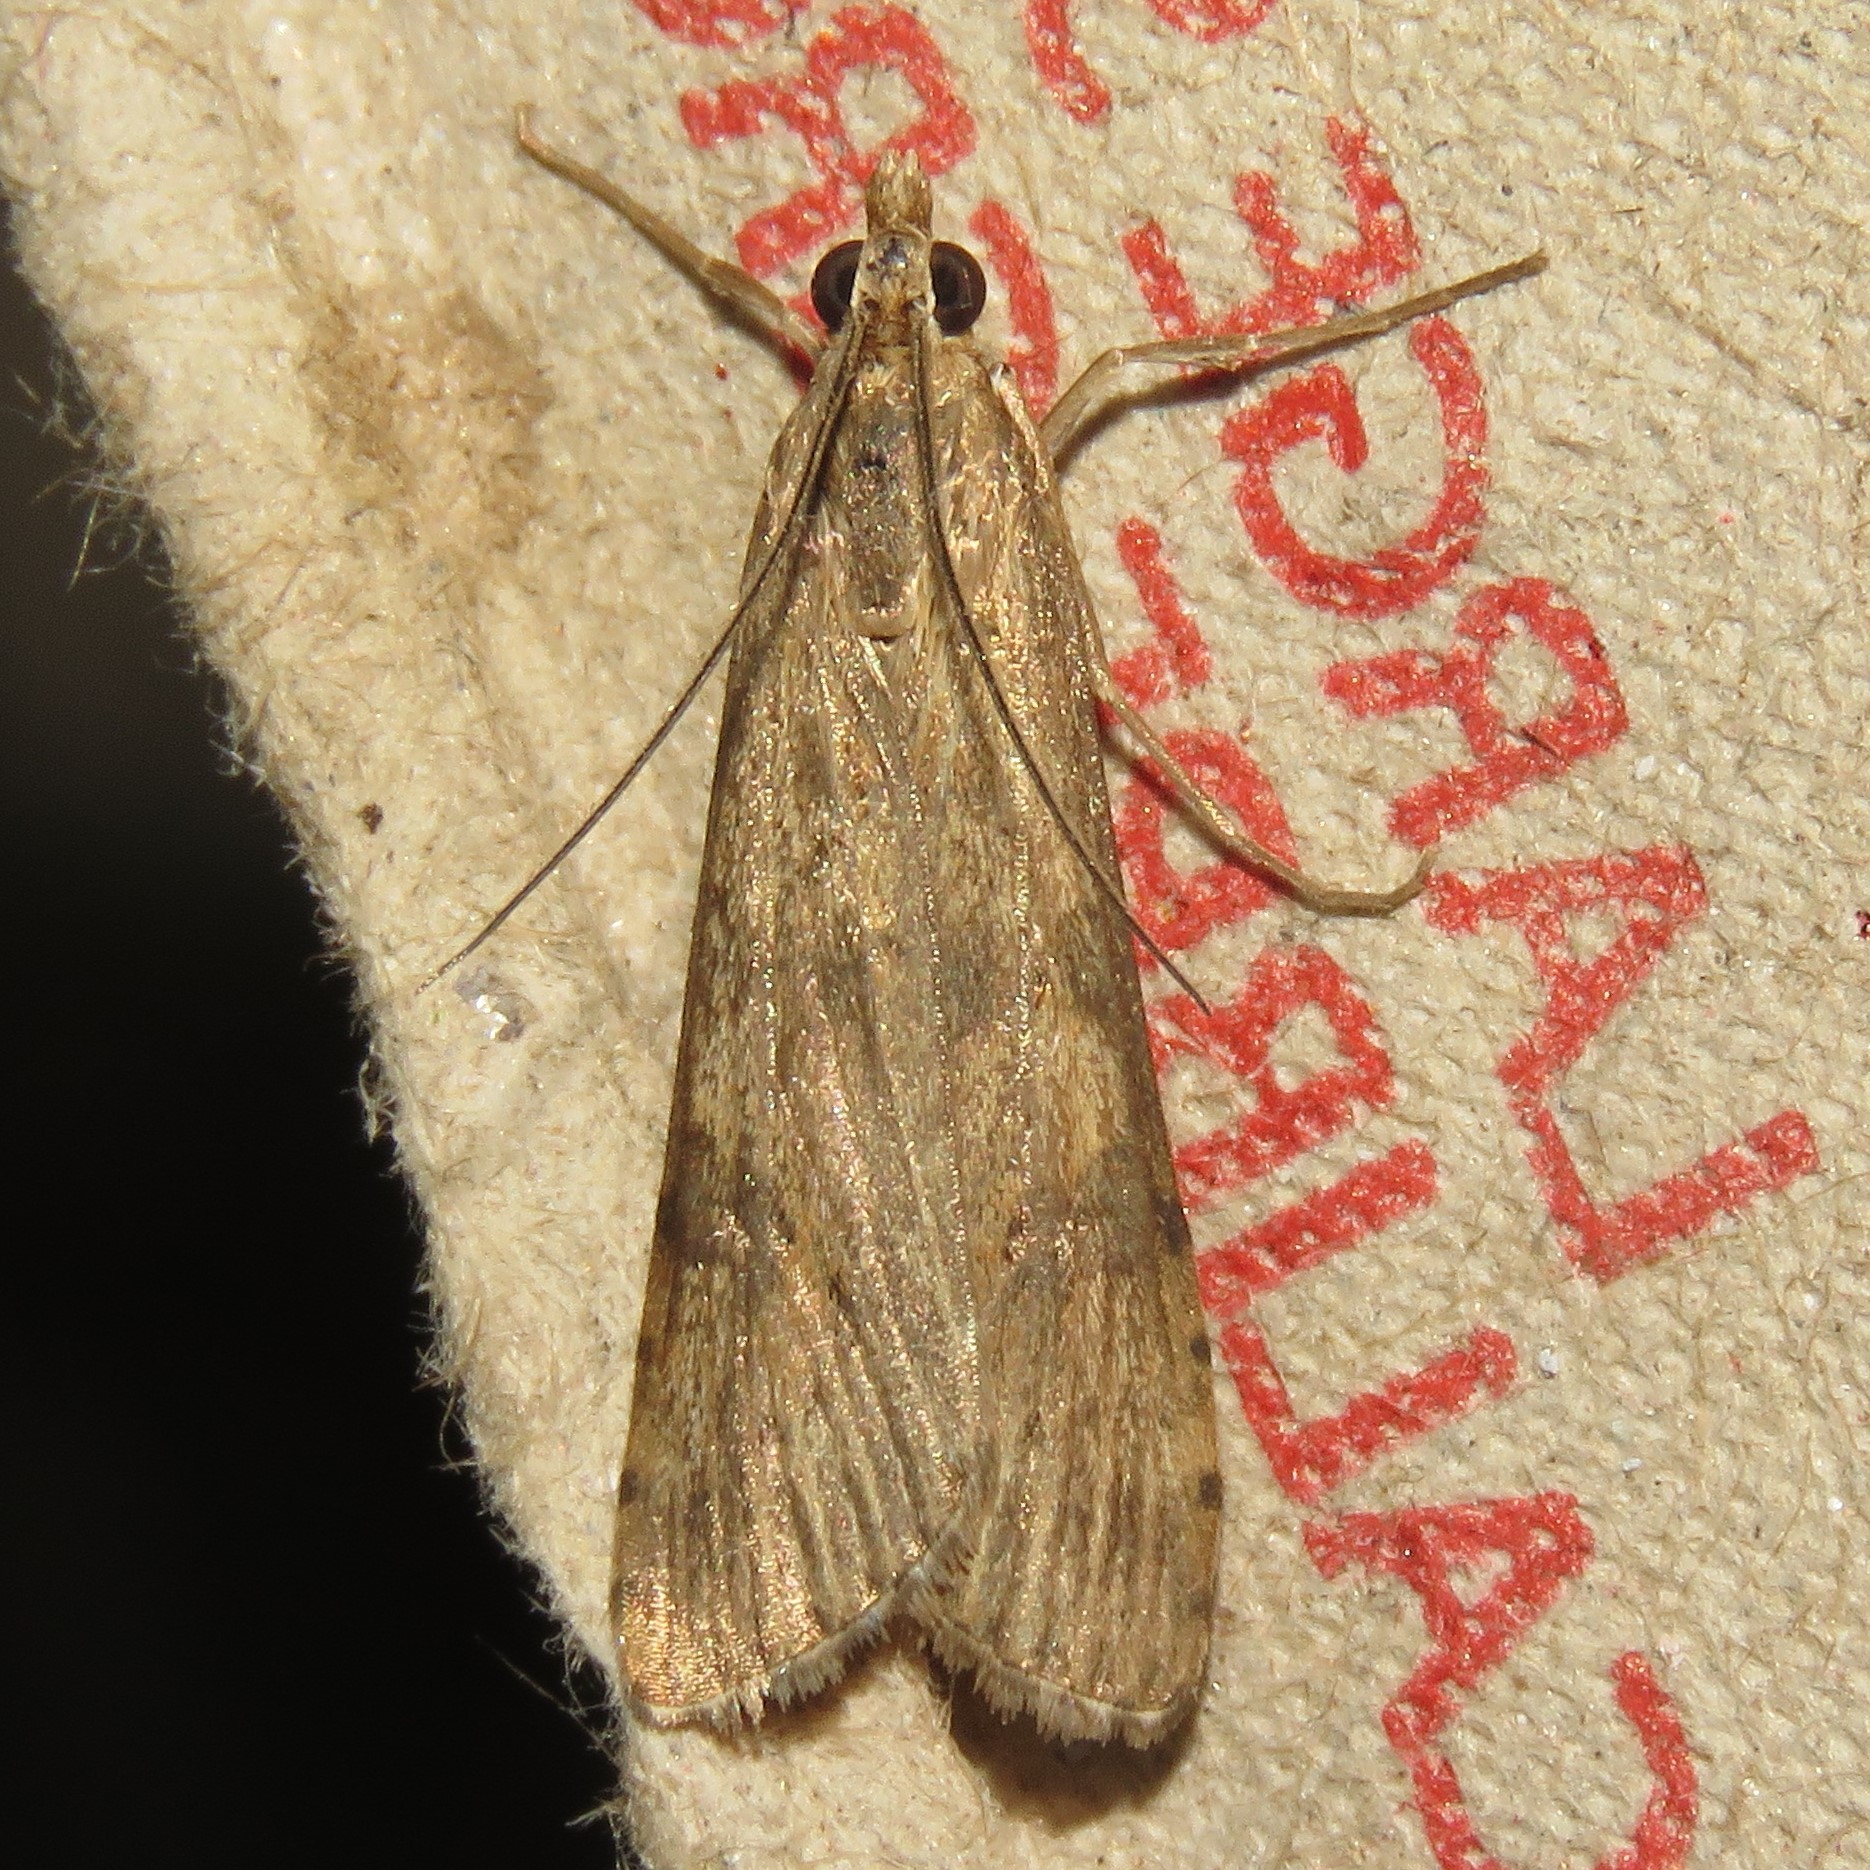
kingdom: Animalia
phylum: Arthropoda
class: Insecta
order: Lepidoptera
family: Crambidae
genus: Nomophila
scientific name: Nomophila nearctica
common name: American rush veneer
